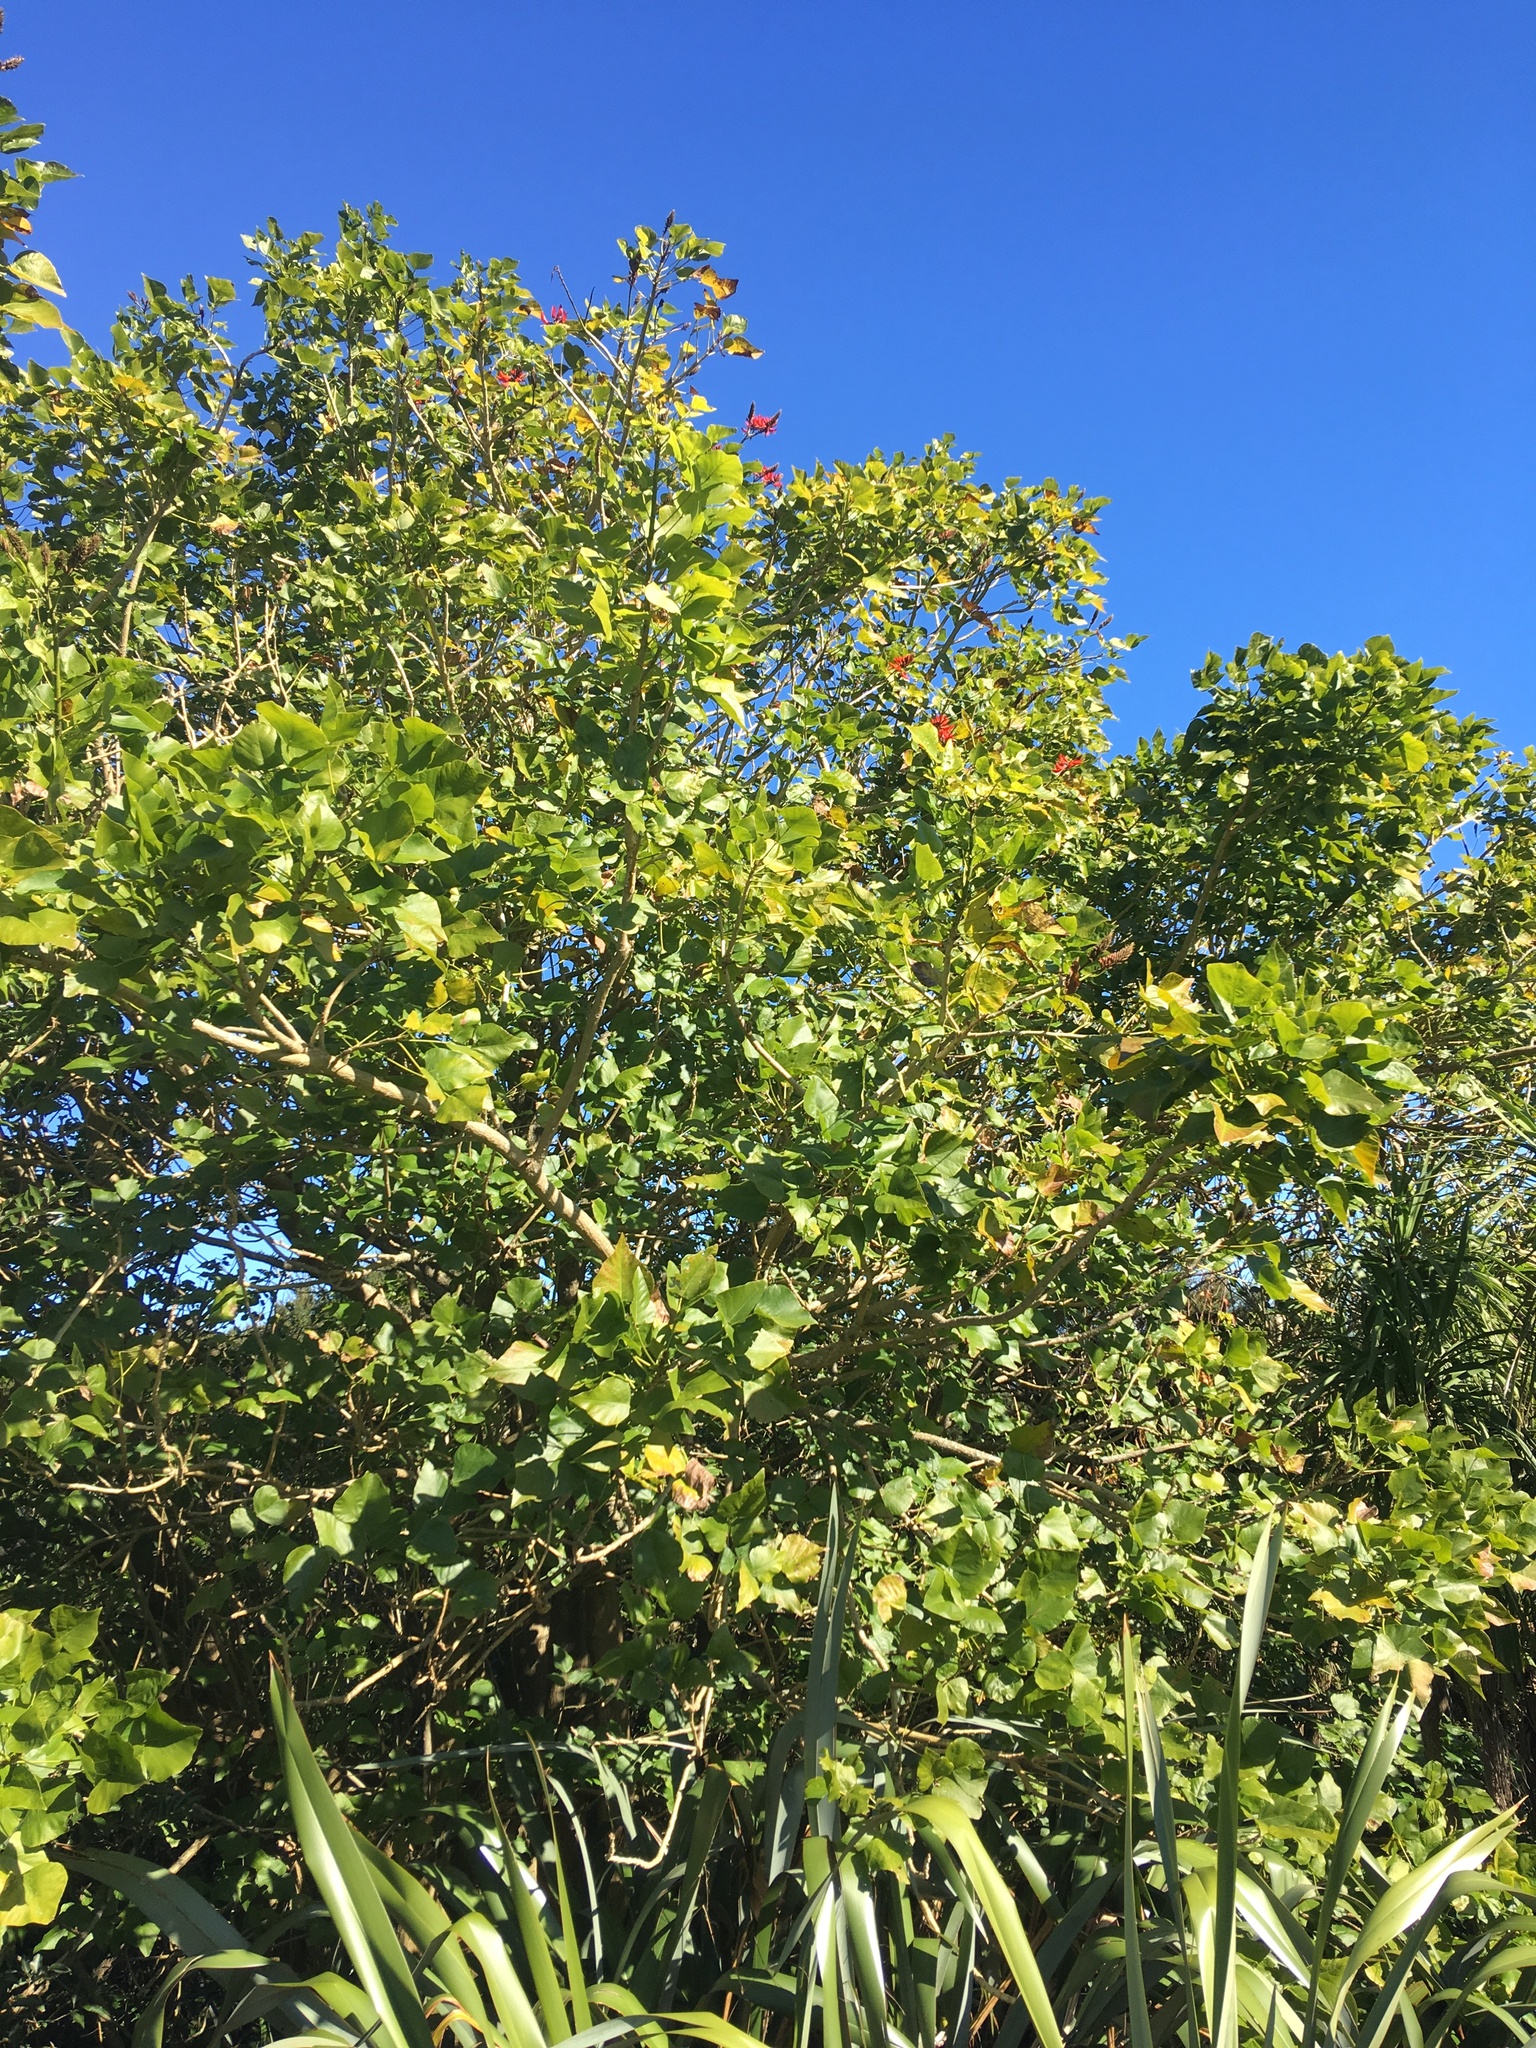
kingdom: Plantae
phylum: Tracheophyta
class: Magnoliopsida
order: Fabales
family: Fabaceae
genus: Erythrina
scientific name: Erythrina sykesii
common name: Coraltree
